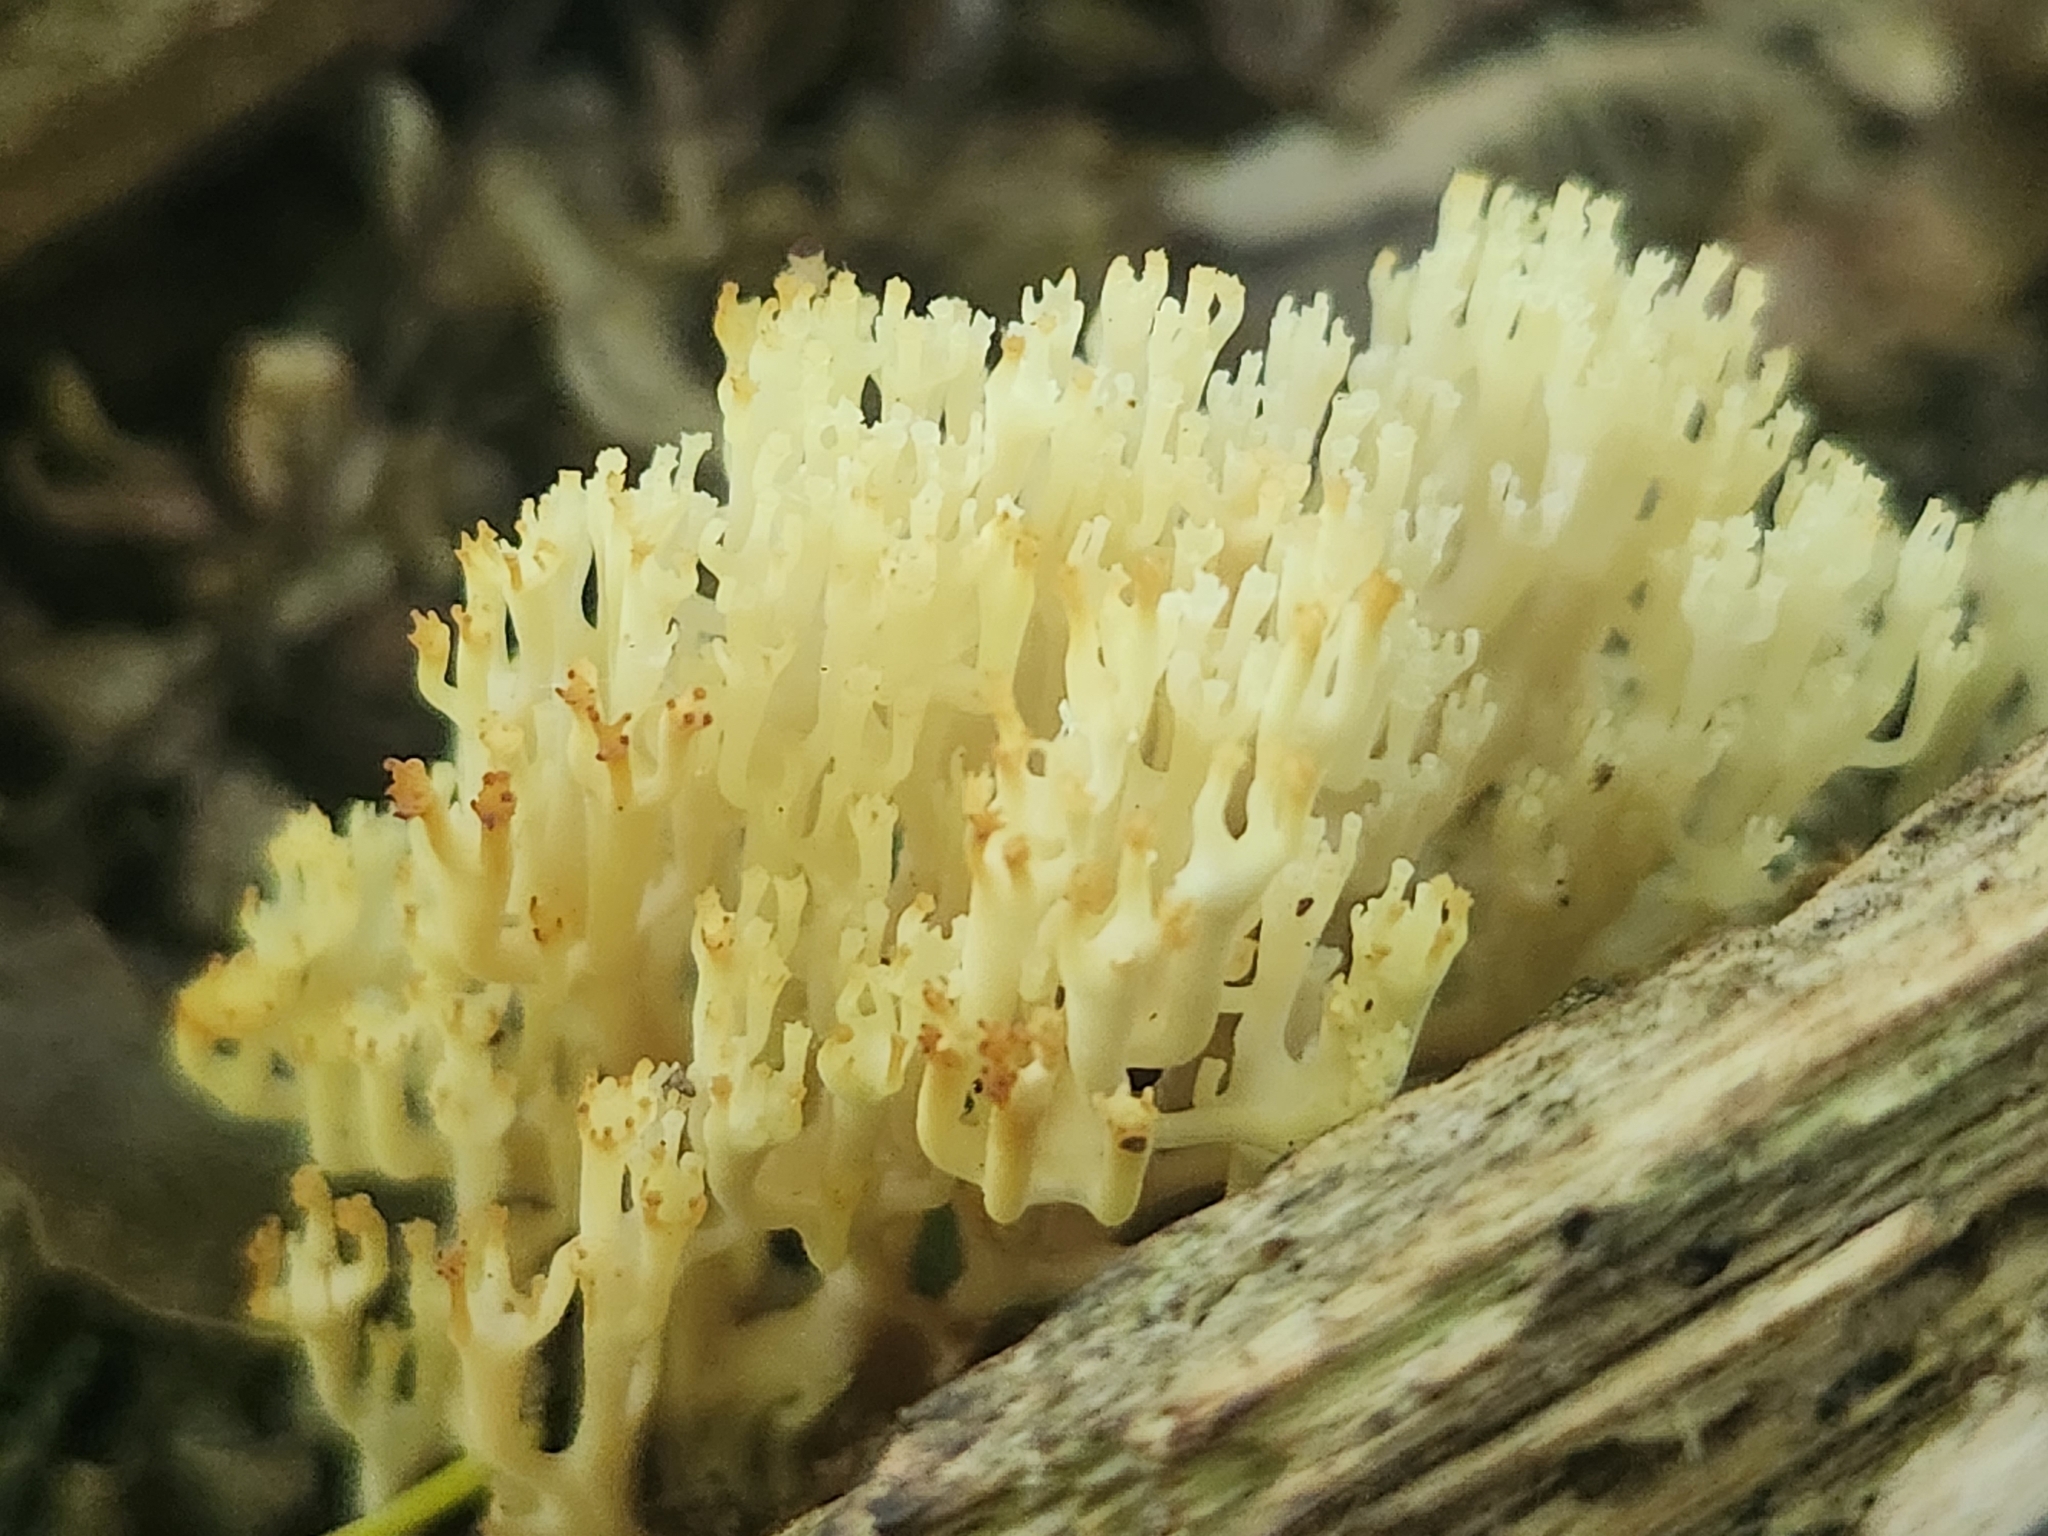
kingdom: Fungi
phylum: Basidiomycota
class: Agaricomycetes
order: Russulales
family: Auriscalpiaceae
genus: Artomyces
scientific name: Artomyces pyxidatus
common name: Crown-tipped coral fungus
